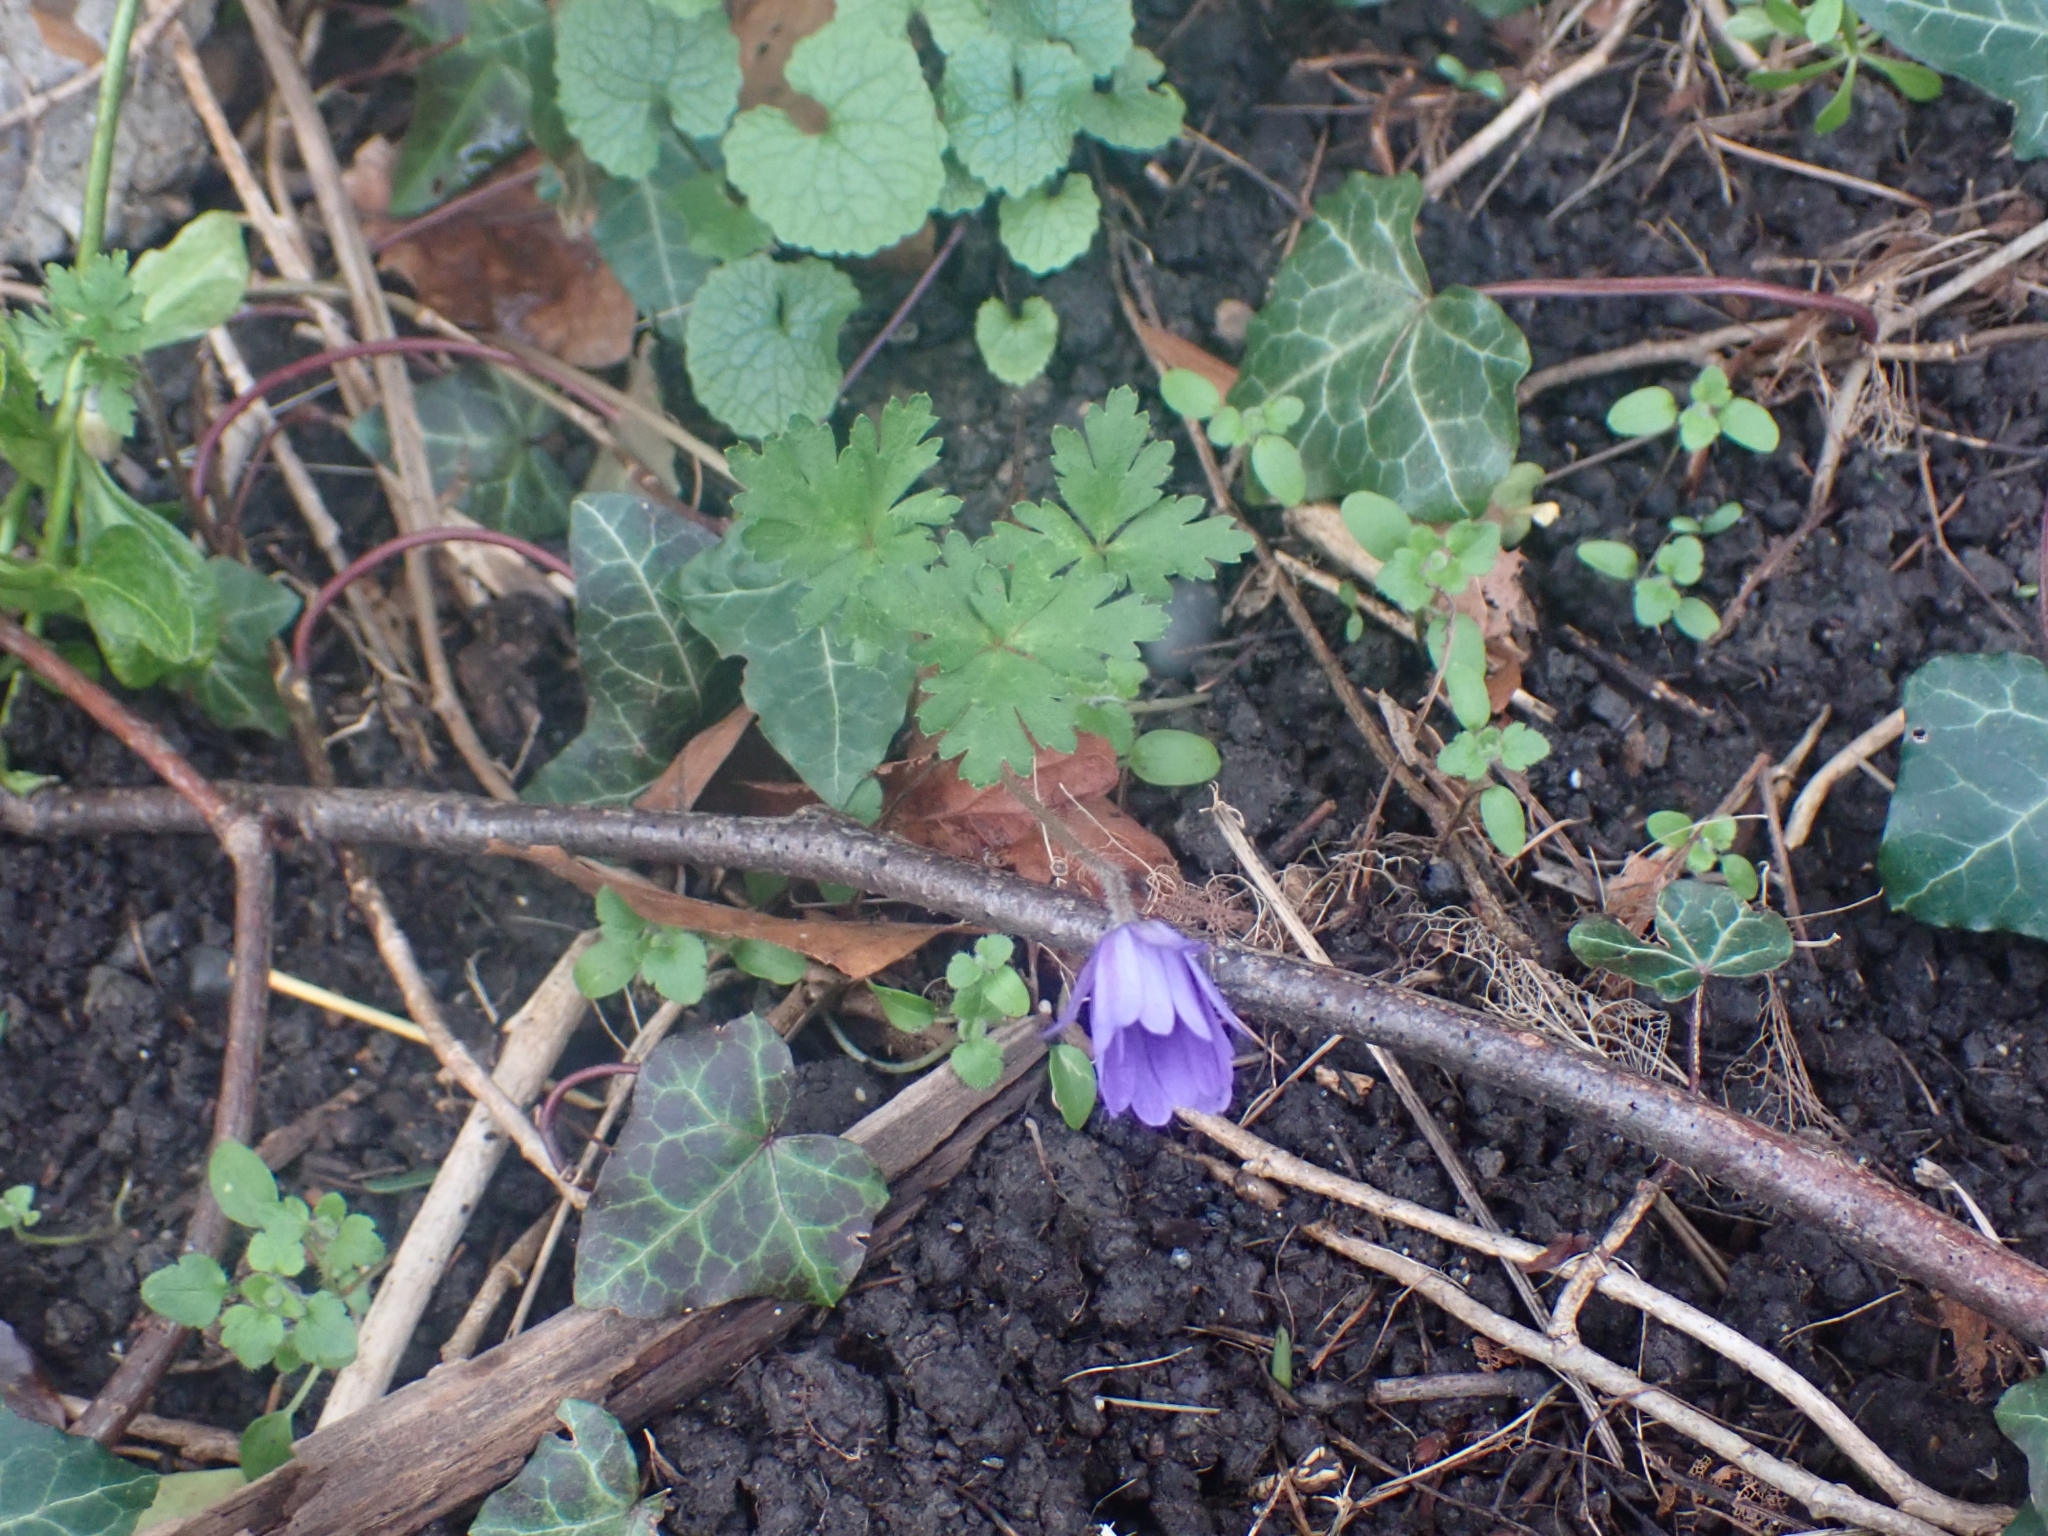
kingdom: Plantae
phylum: Tracheophyta
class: Magnoliopsida
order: Ranunculales
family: Ranunculaceae
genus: Anemone
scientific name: Anemone blanda
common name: Balkan anemone
